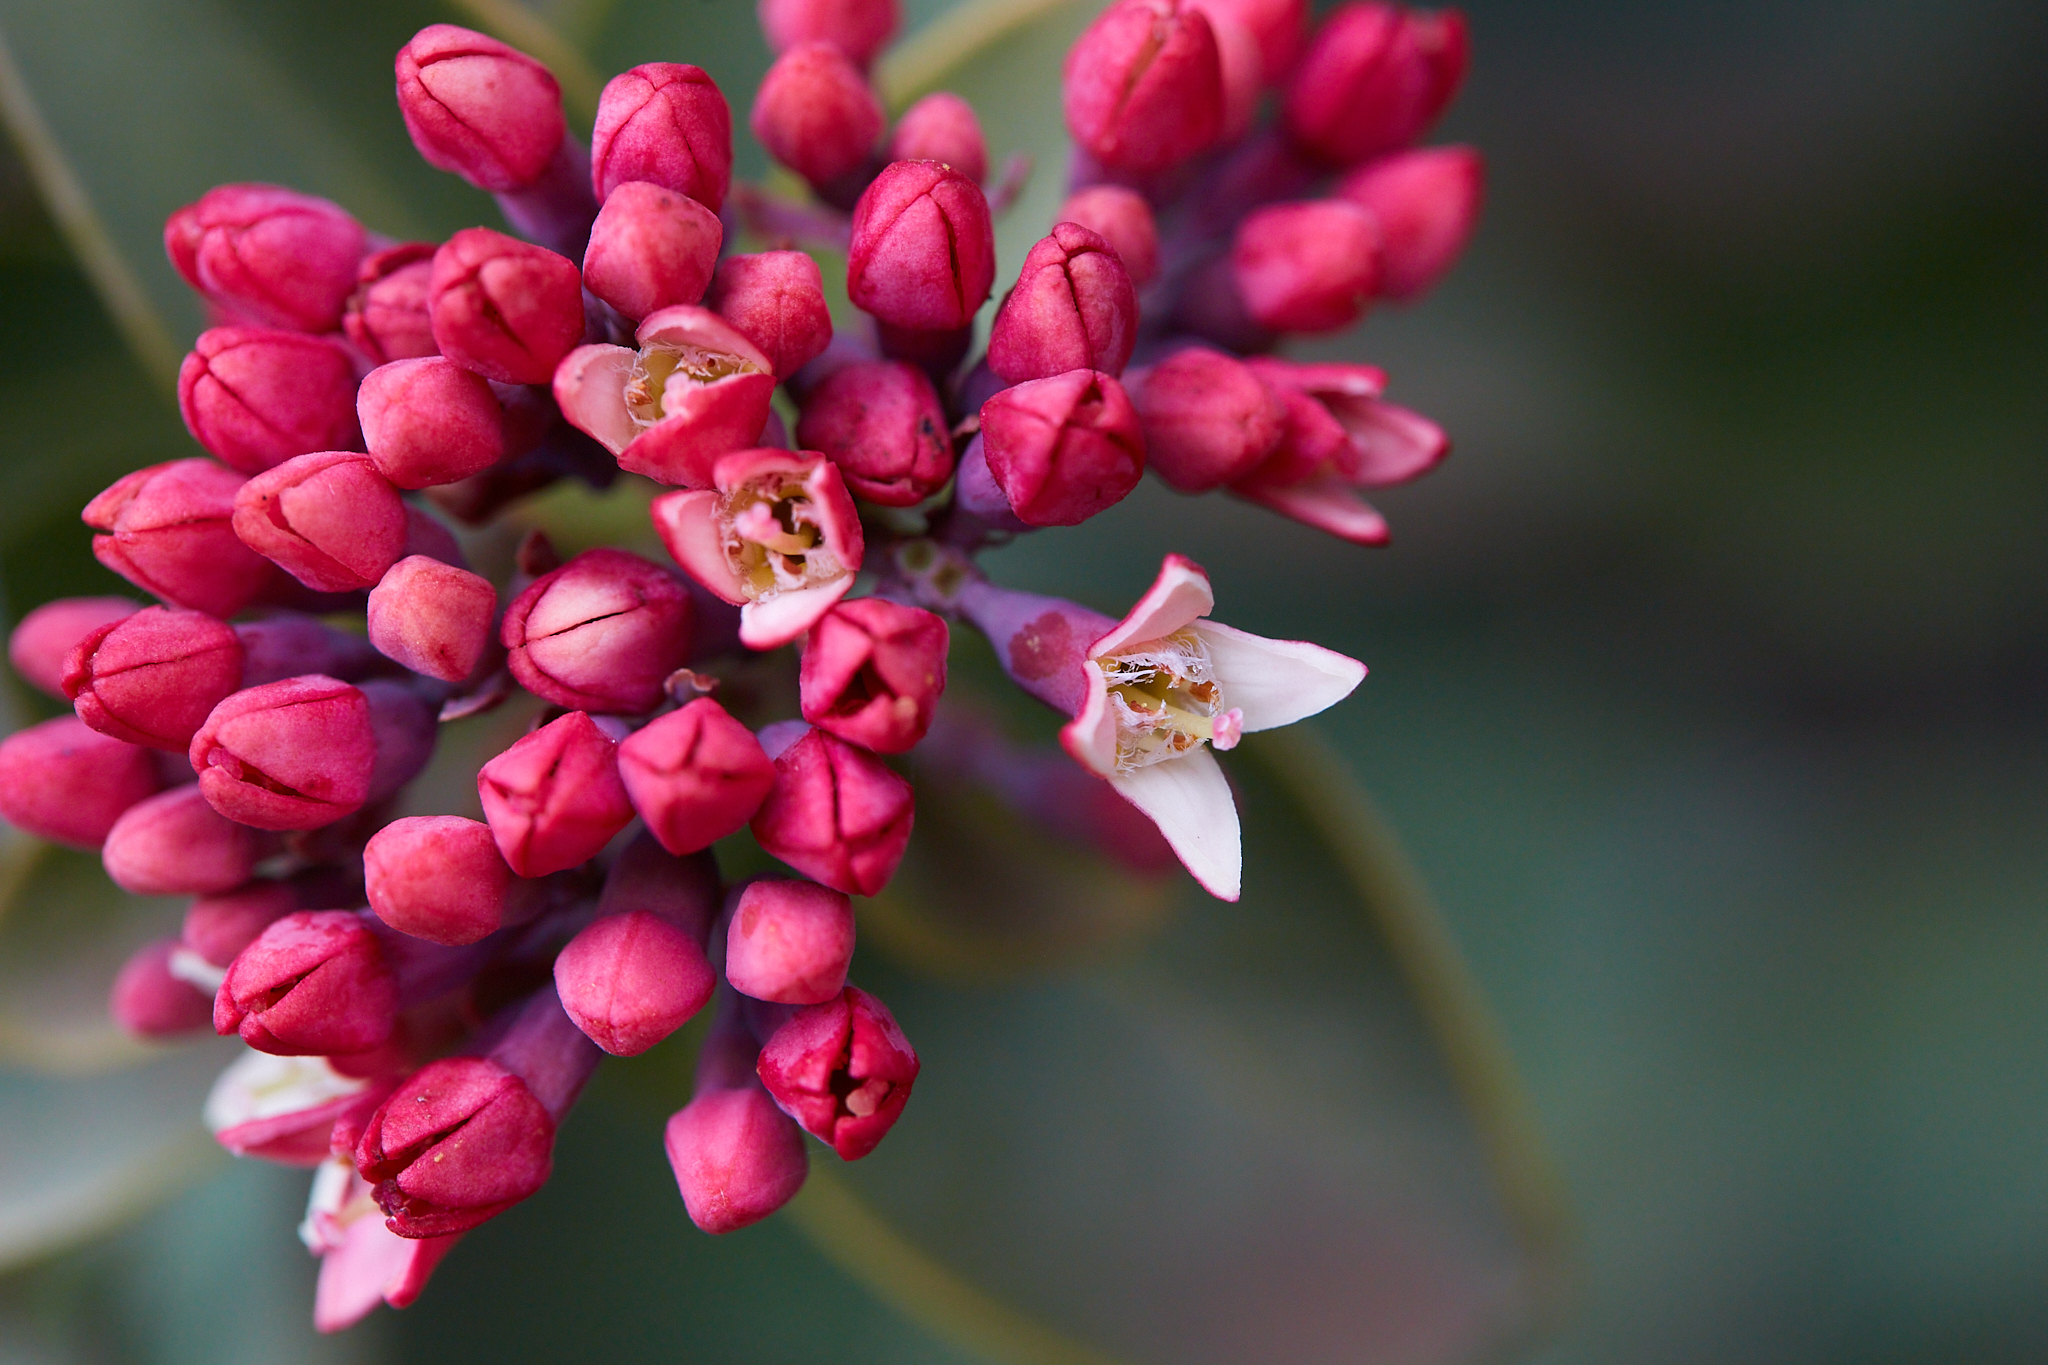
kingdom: Plantae
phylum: Tracheophyta
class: Magnoliopsida
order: Santalales
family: Santalaceae
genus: Santalum
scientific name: Santalum haleakalae
